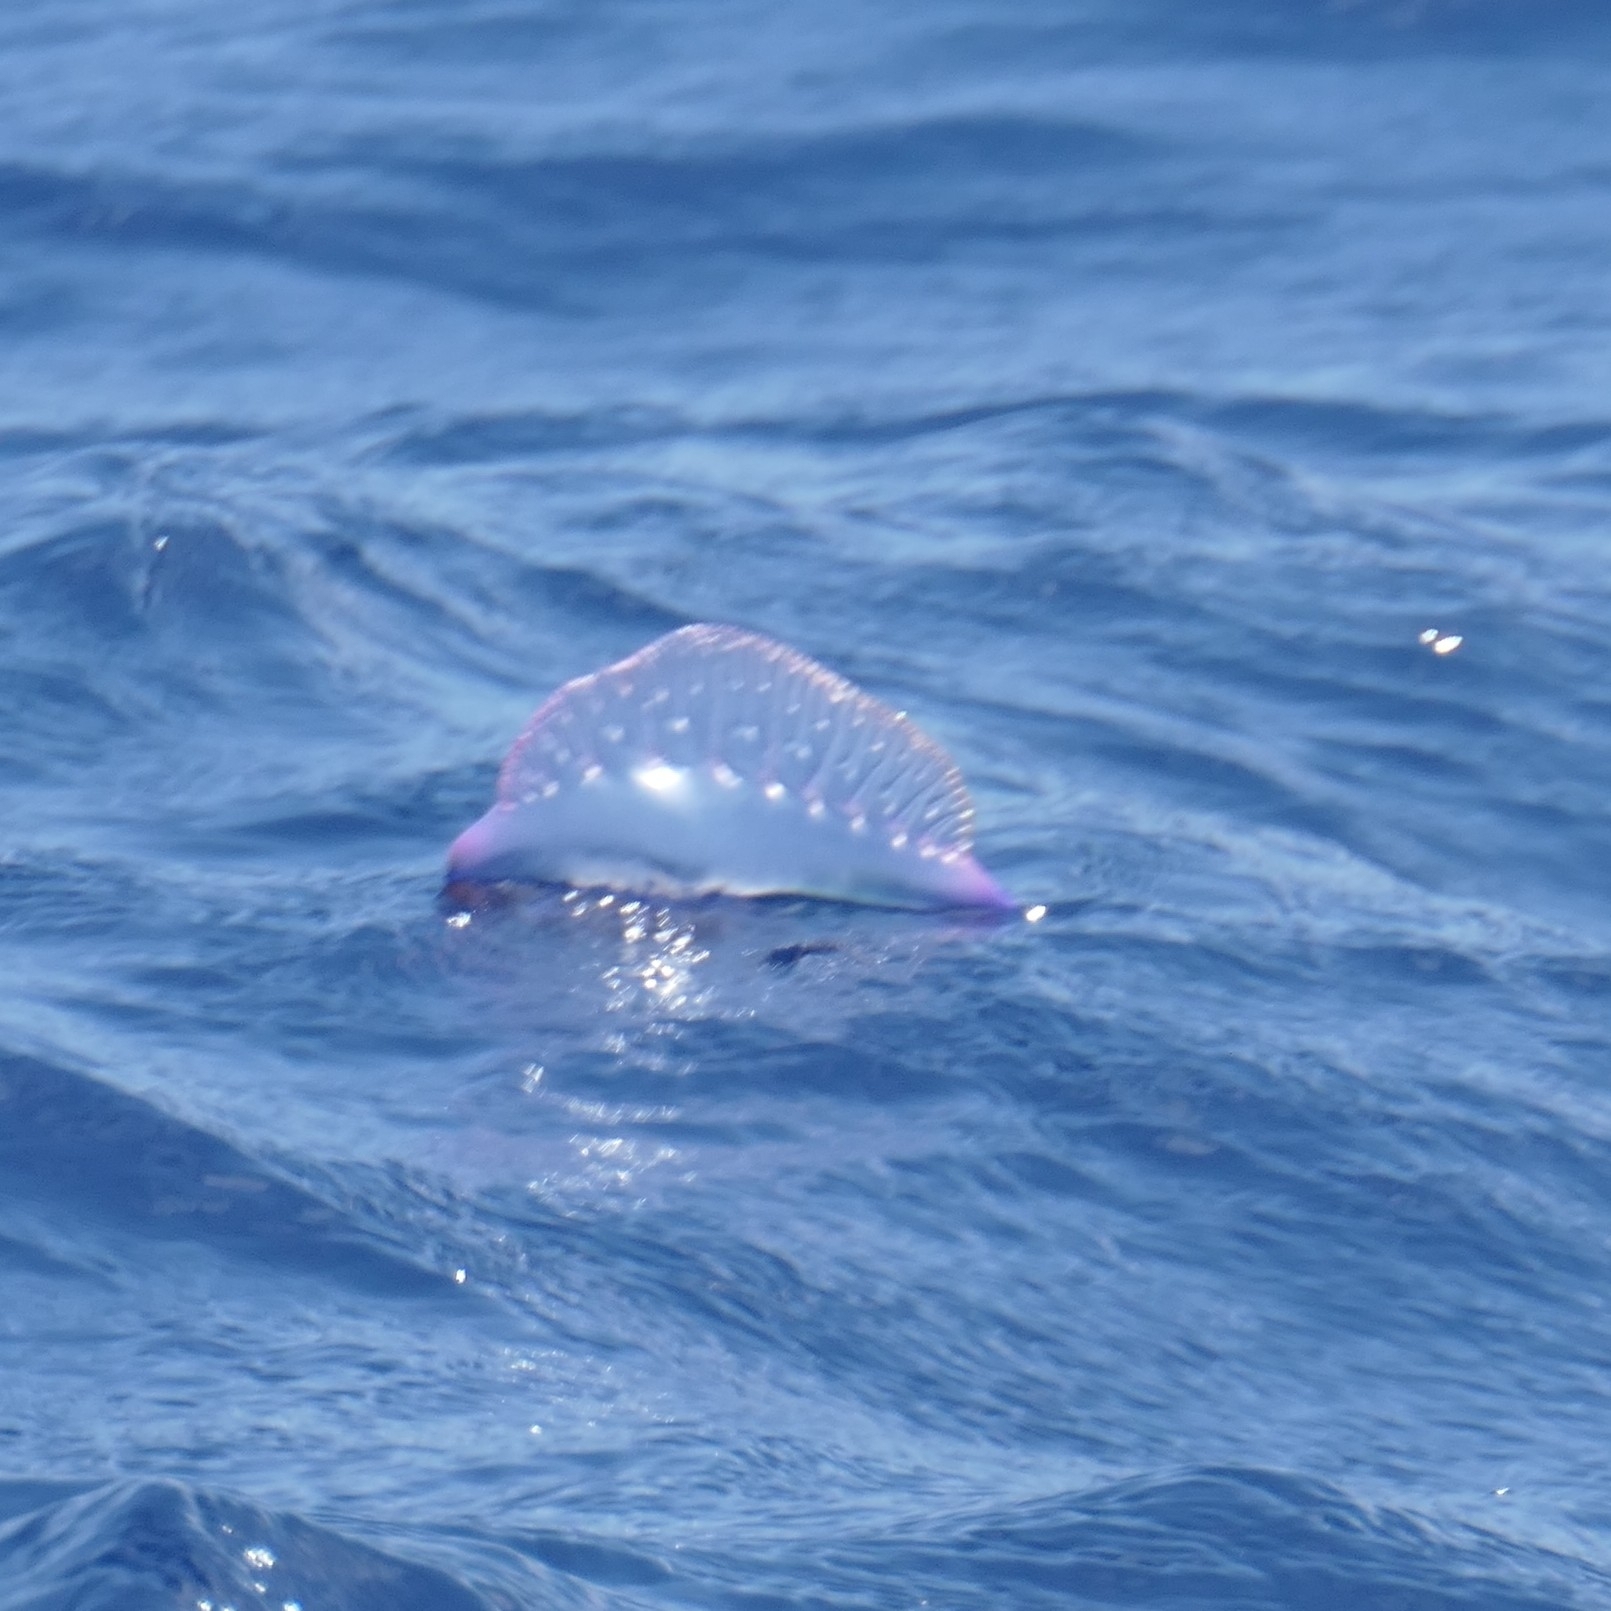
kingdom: Animalia
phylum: Cnidaria
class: Hydrozoa
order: Siphonophorae
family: Physaliidae
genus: Physalia
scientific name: Physalia physalis
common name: Portuguese man-of-war
